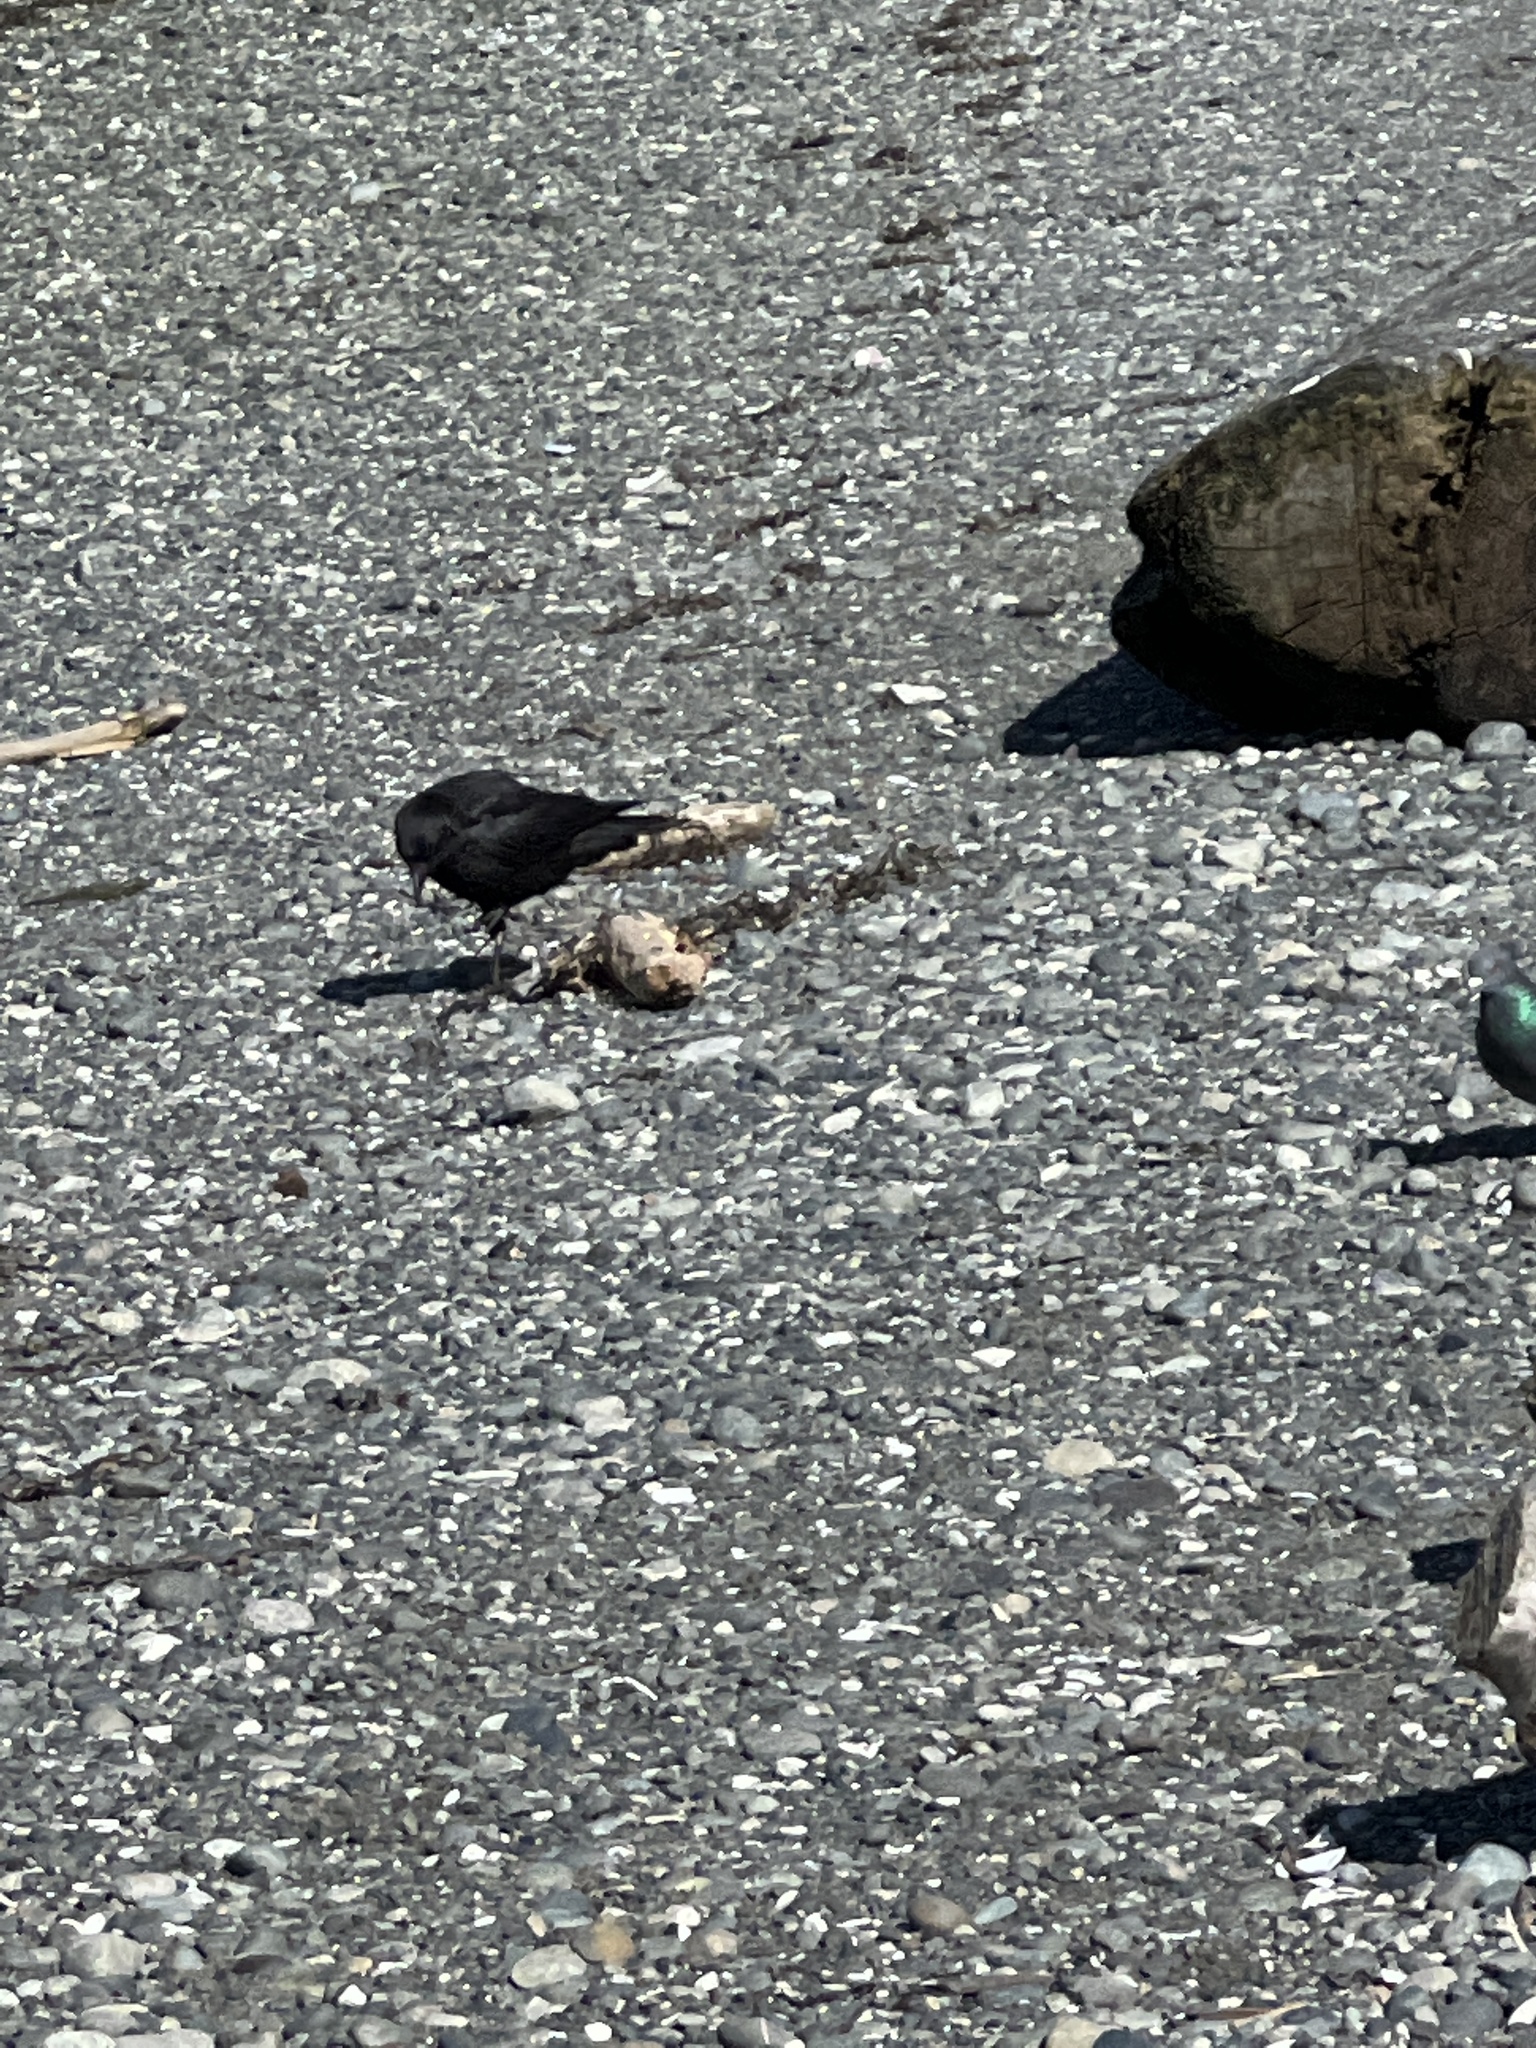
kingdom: Animalia
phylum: Chordata
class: Aves
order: Passeriformes
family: Corvidae
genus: Corvus
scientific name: Corvus brachyrhynchos
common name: American crow
